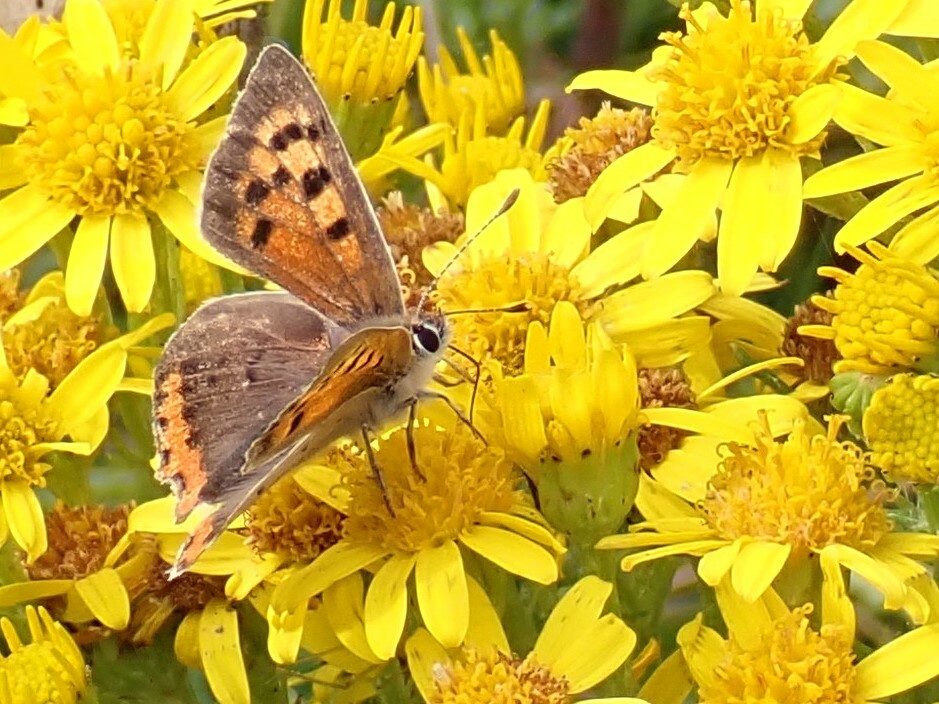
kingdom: Animalia
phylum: Arthropoda
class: Insecta
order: Lepidoptera
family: Lycaenidae
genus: Lycaena
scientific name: Lycaena phlaeas
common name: Small copper
